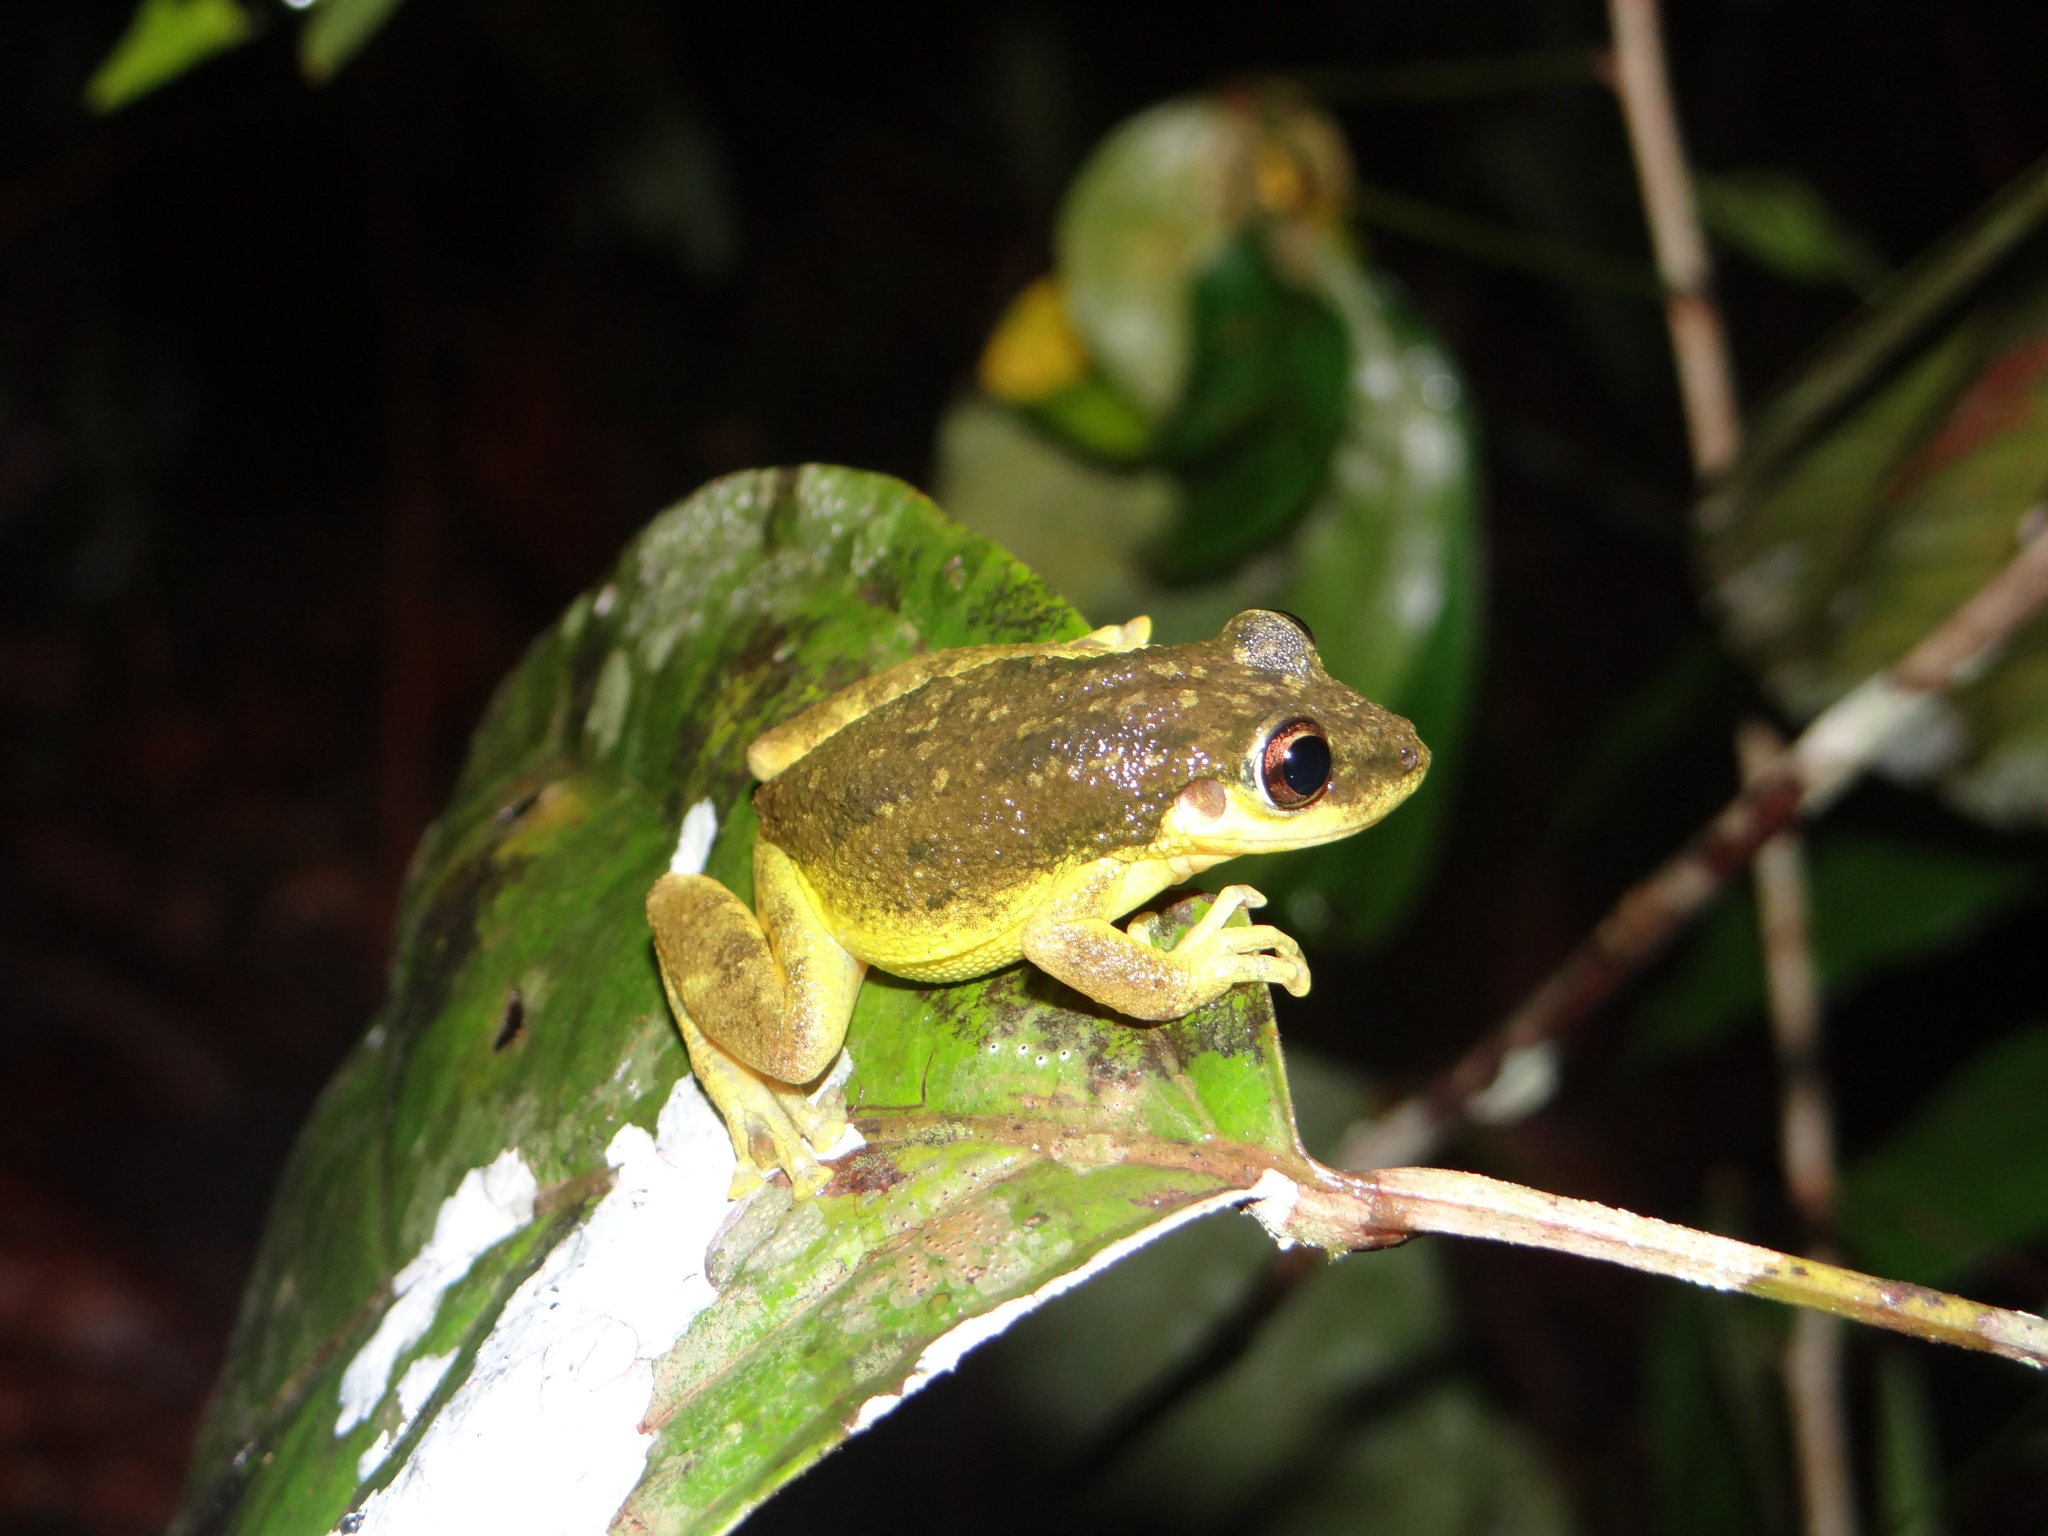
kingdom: Animalia
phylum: Chordata
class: Amphibia
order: Anura
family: Hylidae
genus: Scinax
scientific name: Scinax ruber
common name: Red snouted treefrog
